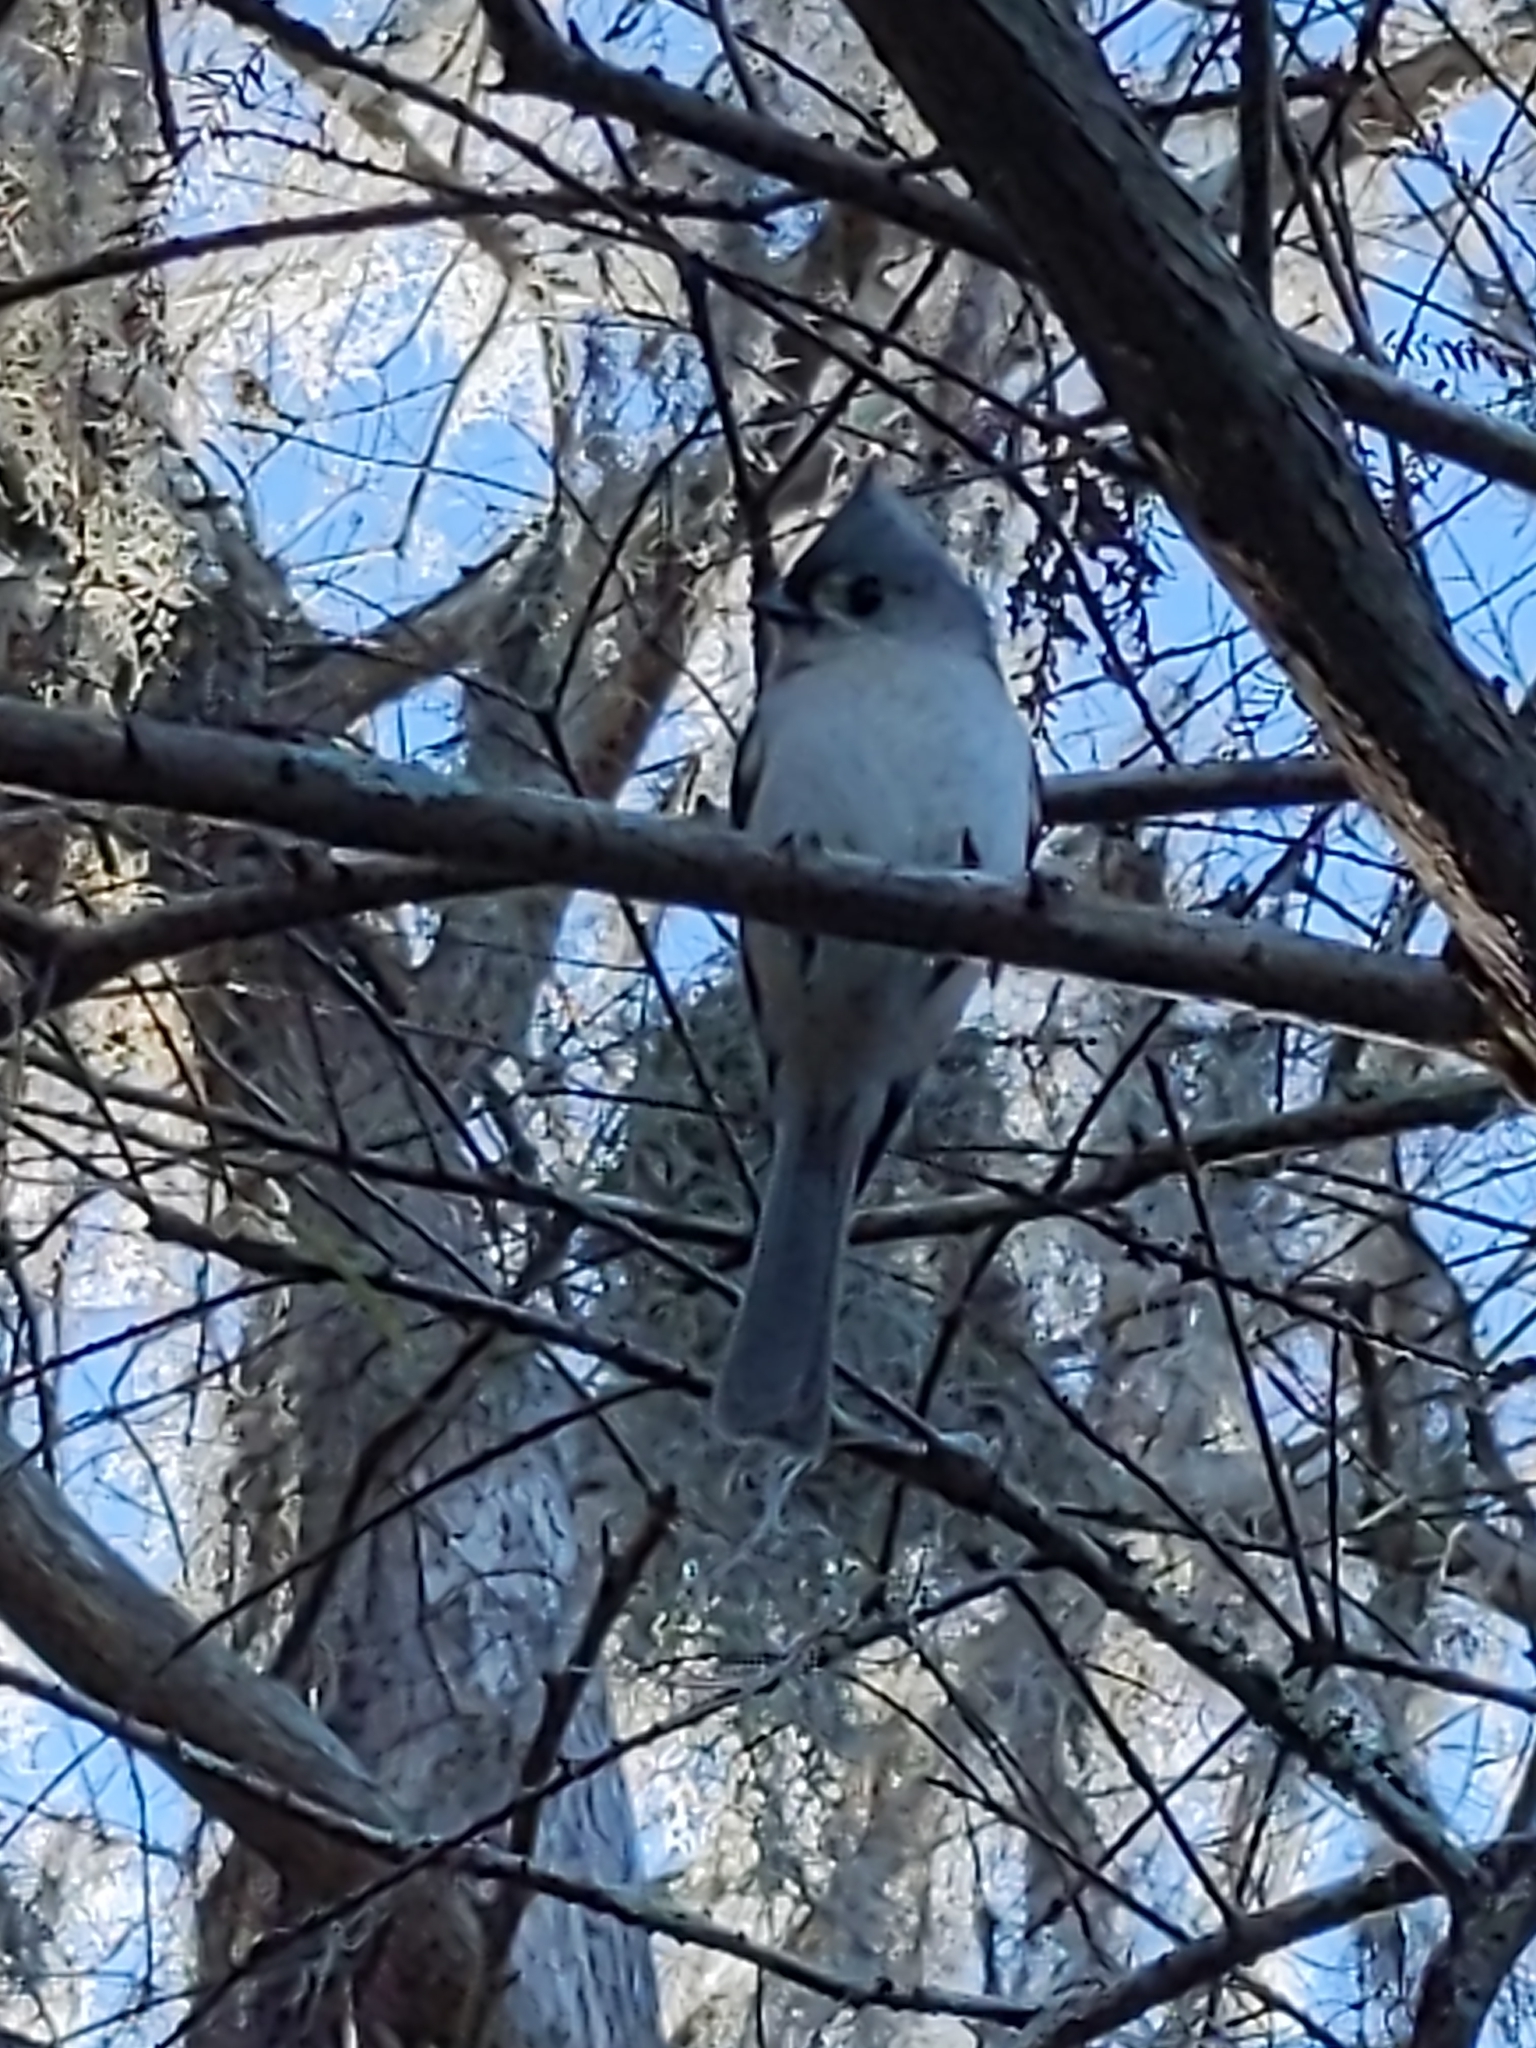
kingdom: Animalia
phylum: Chordata
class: Aves
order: Passeriformes
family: Paridae
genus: Baeolophus
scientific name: Baeolophus bicolor
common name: Tufted titmouse
